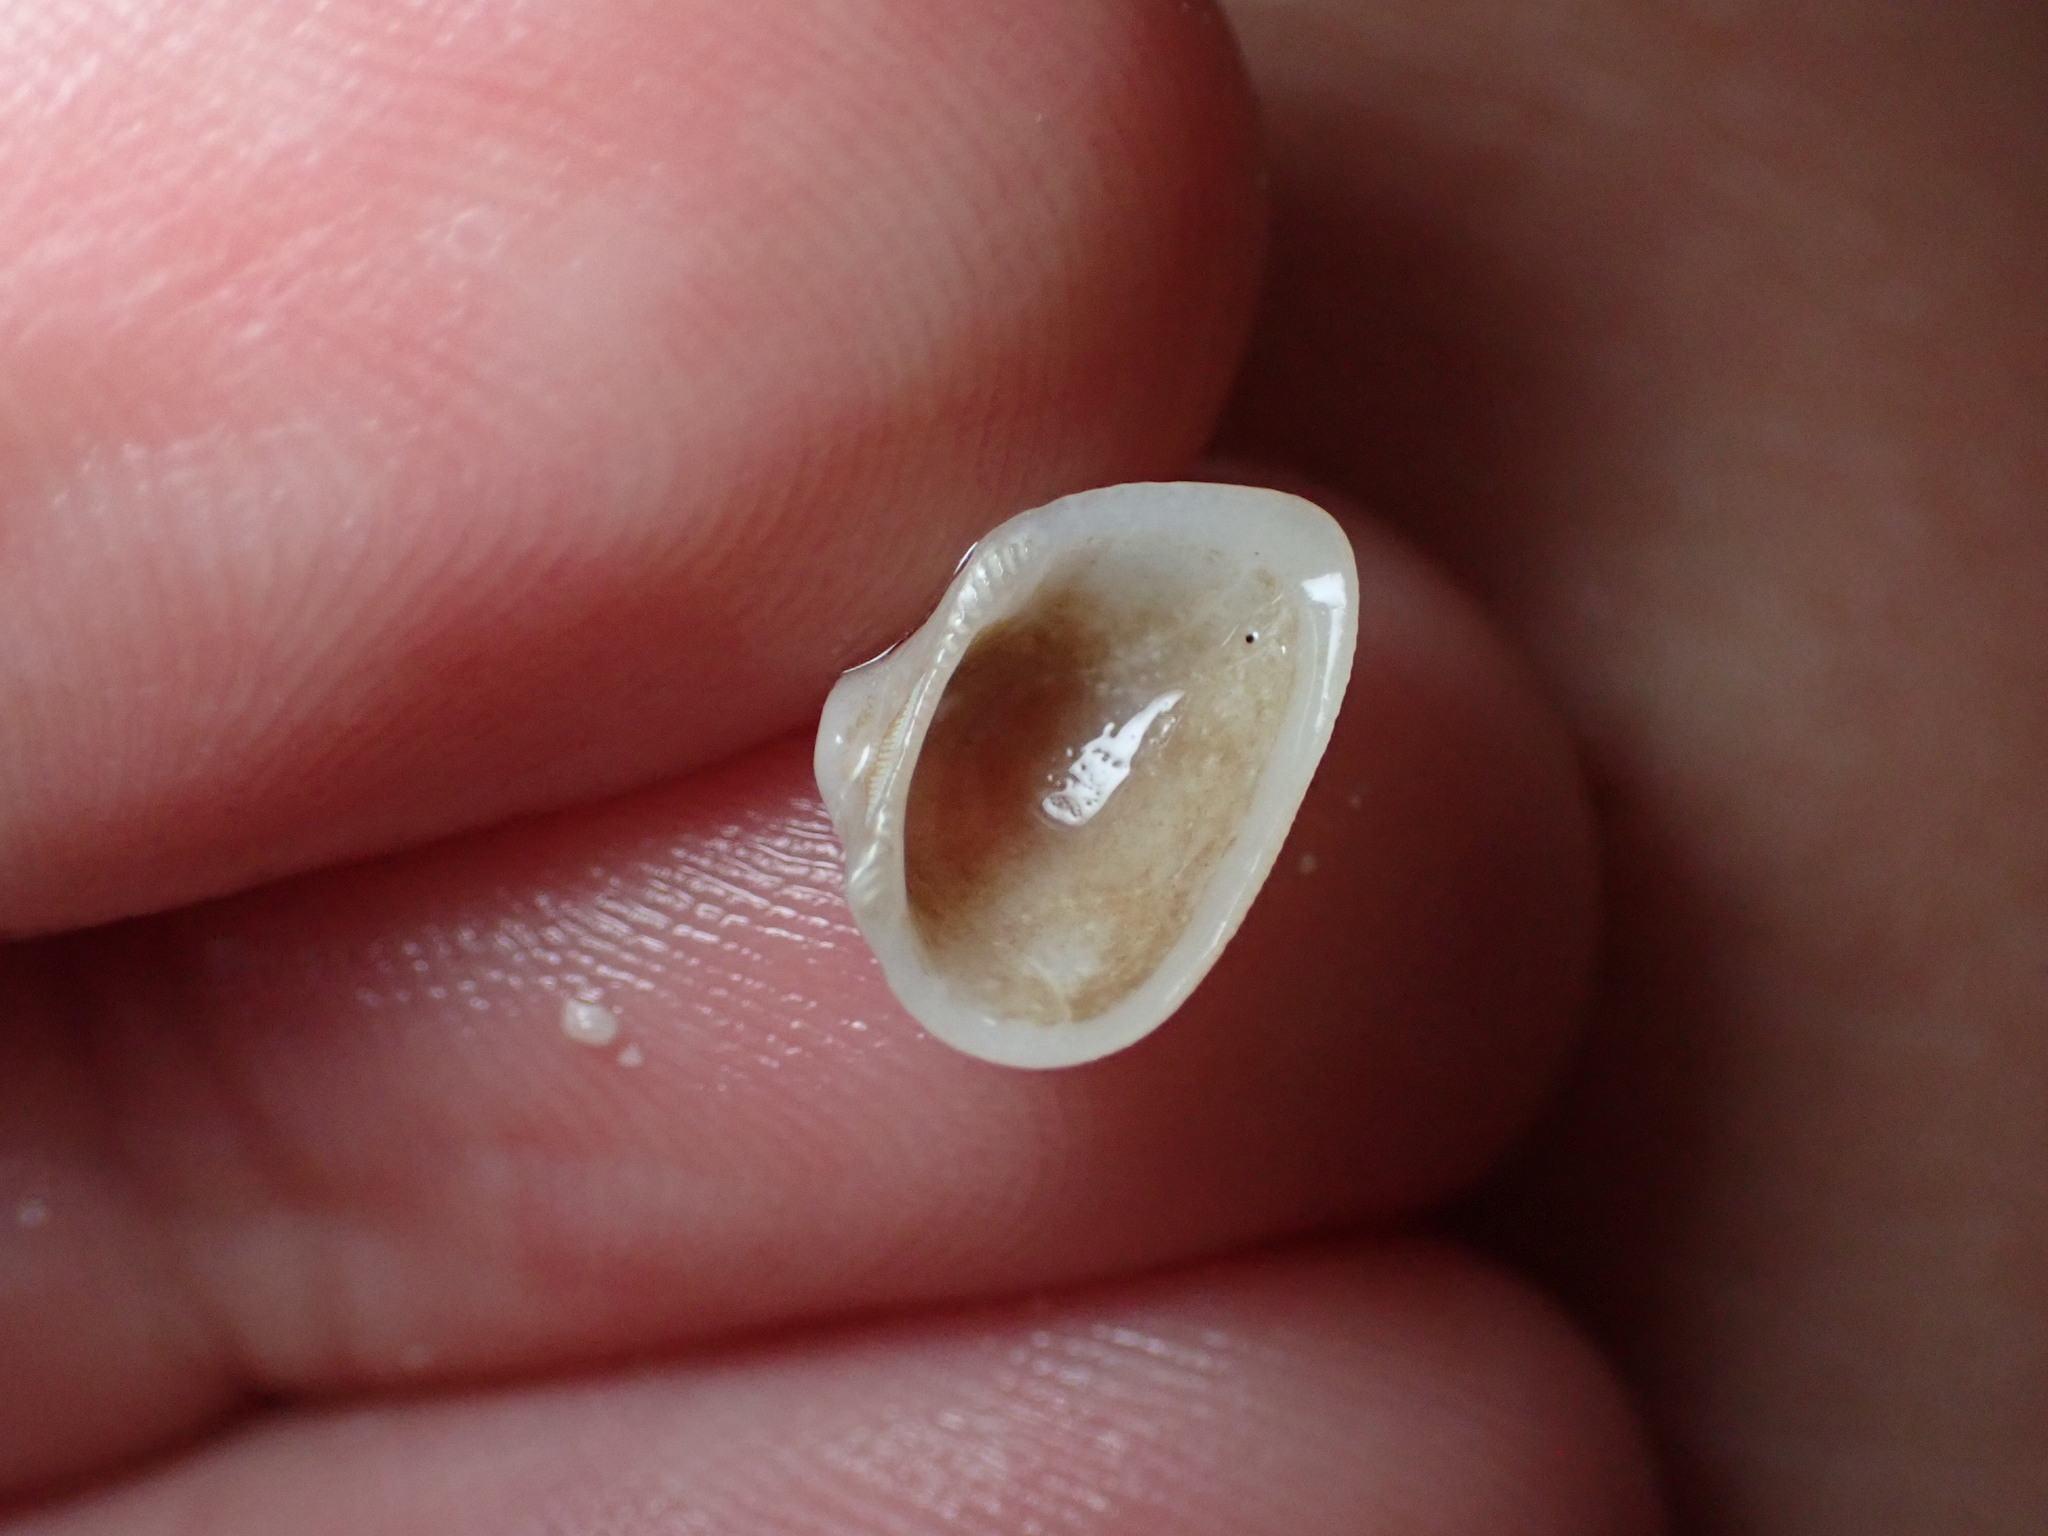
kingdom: Animalia
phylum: Mollusca
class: Bivalvia
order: Arcida
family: Noetiidae
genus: Striarca
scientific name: Striarca lactea
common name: Milky-white ark
